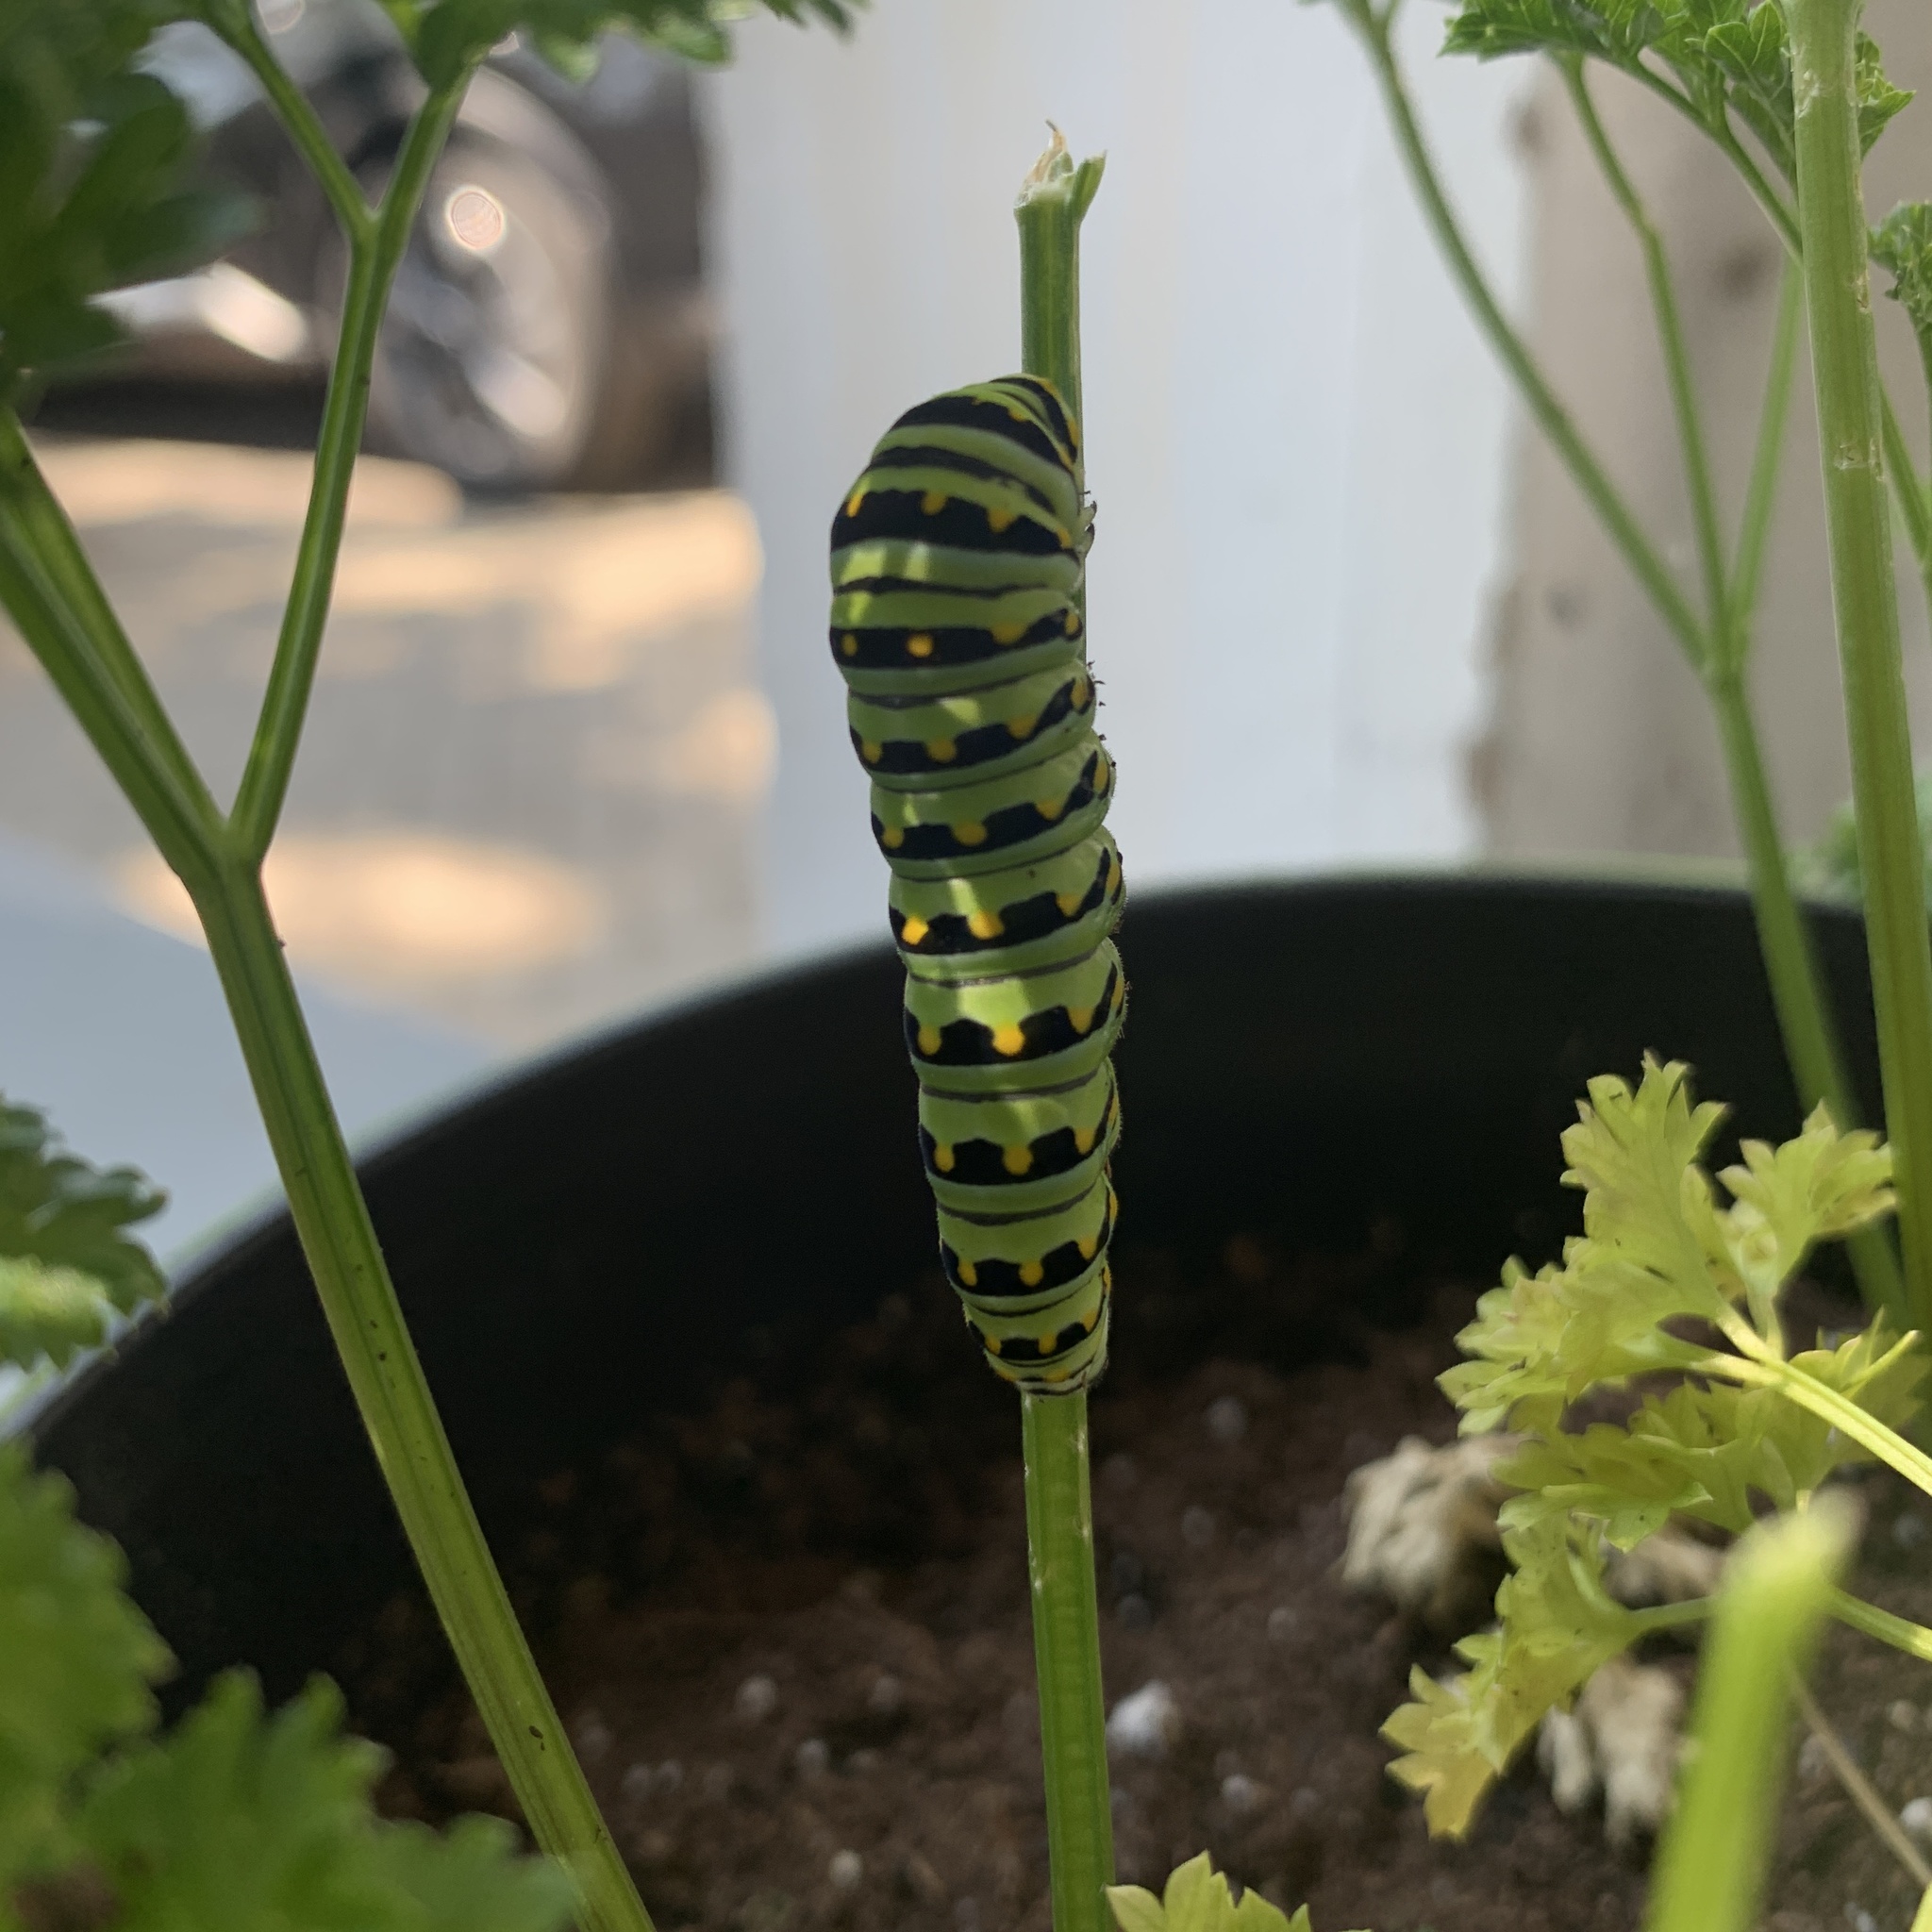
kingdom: Animalia
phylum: Arthropoda
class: Insecta
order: Lepidoptera
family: Papilionidae
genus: Papilio
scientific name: Papilio polyxenes
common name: Black swallowtail
